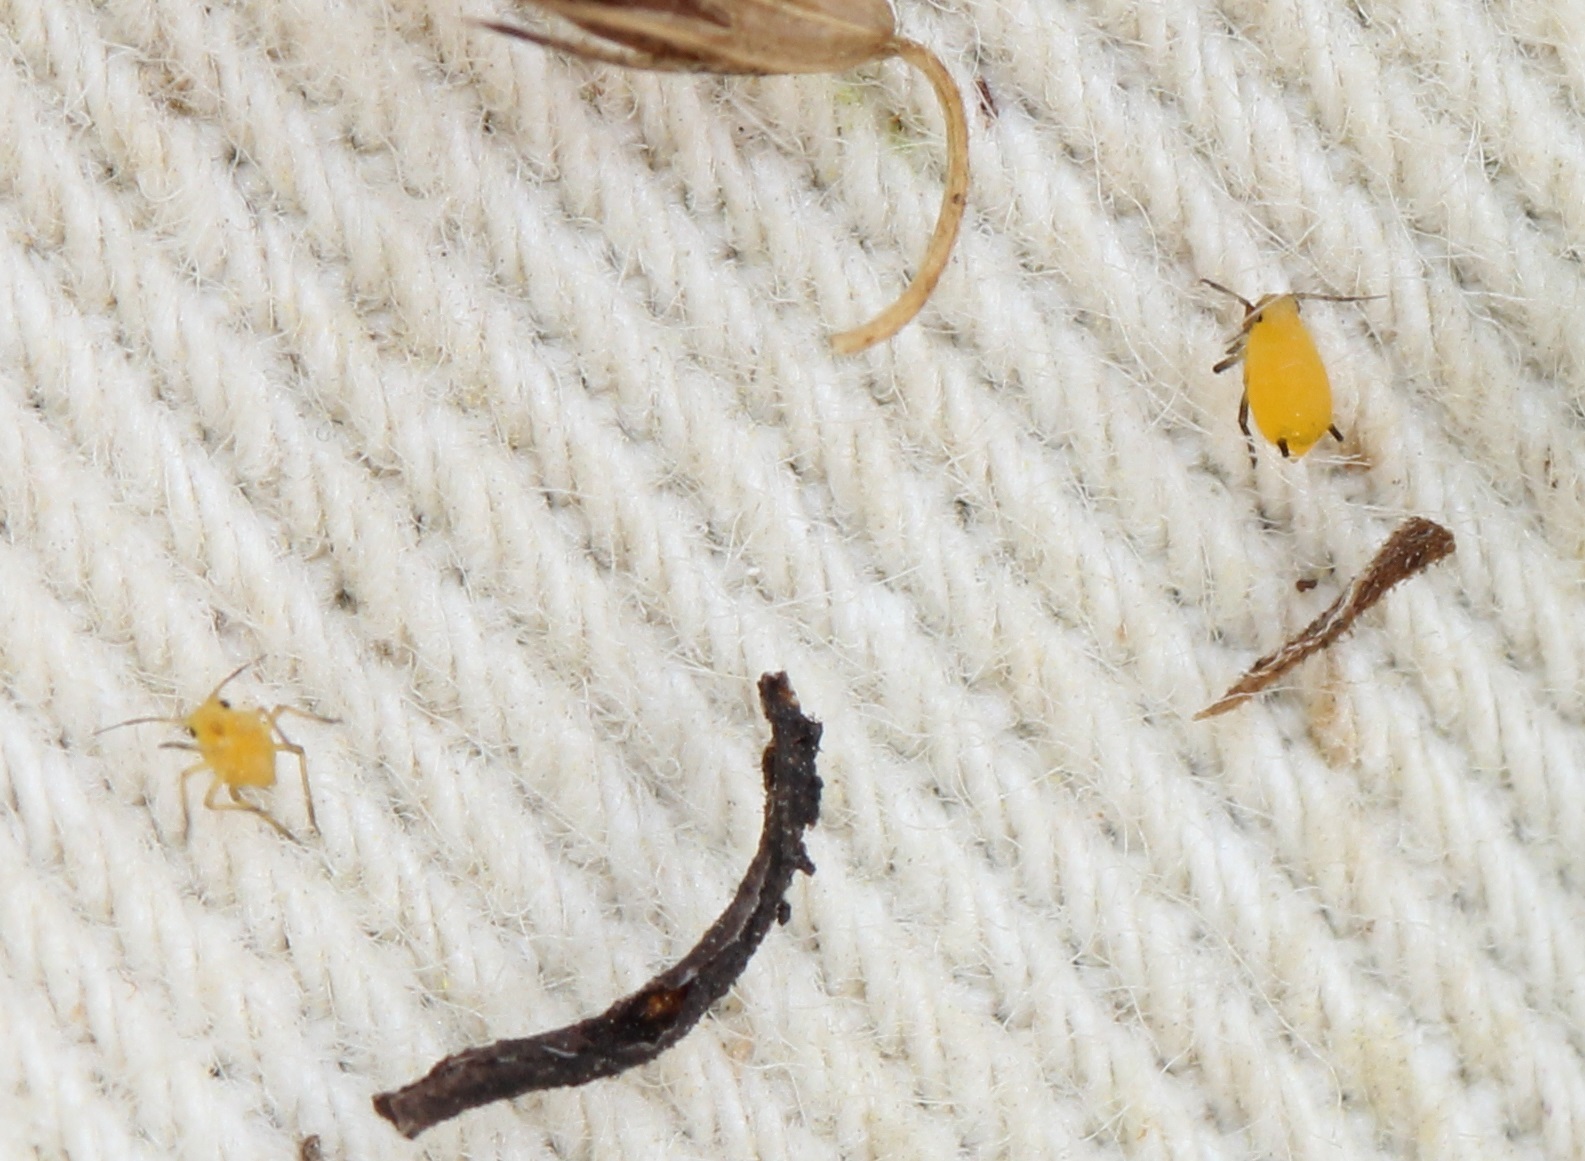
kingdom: Animalia
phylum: Arthropoda
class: Insecta
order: Hemiptera
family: Aphididae
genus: Aphis
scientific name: Aphis nerii
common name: Oleander aphid
